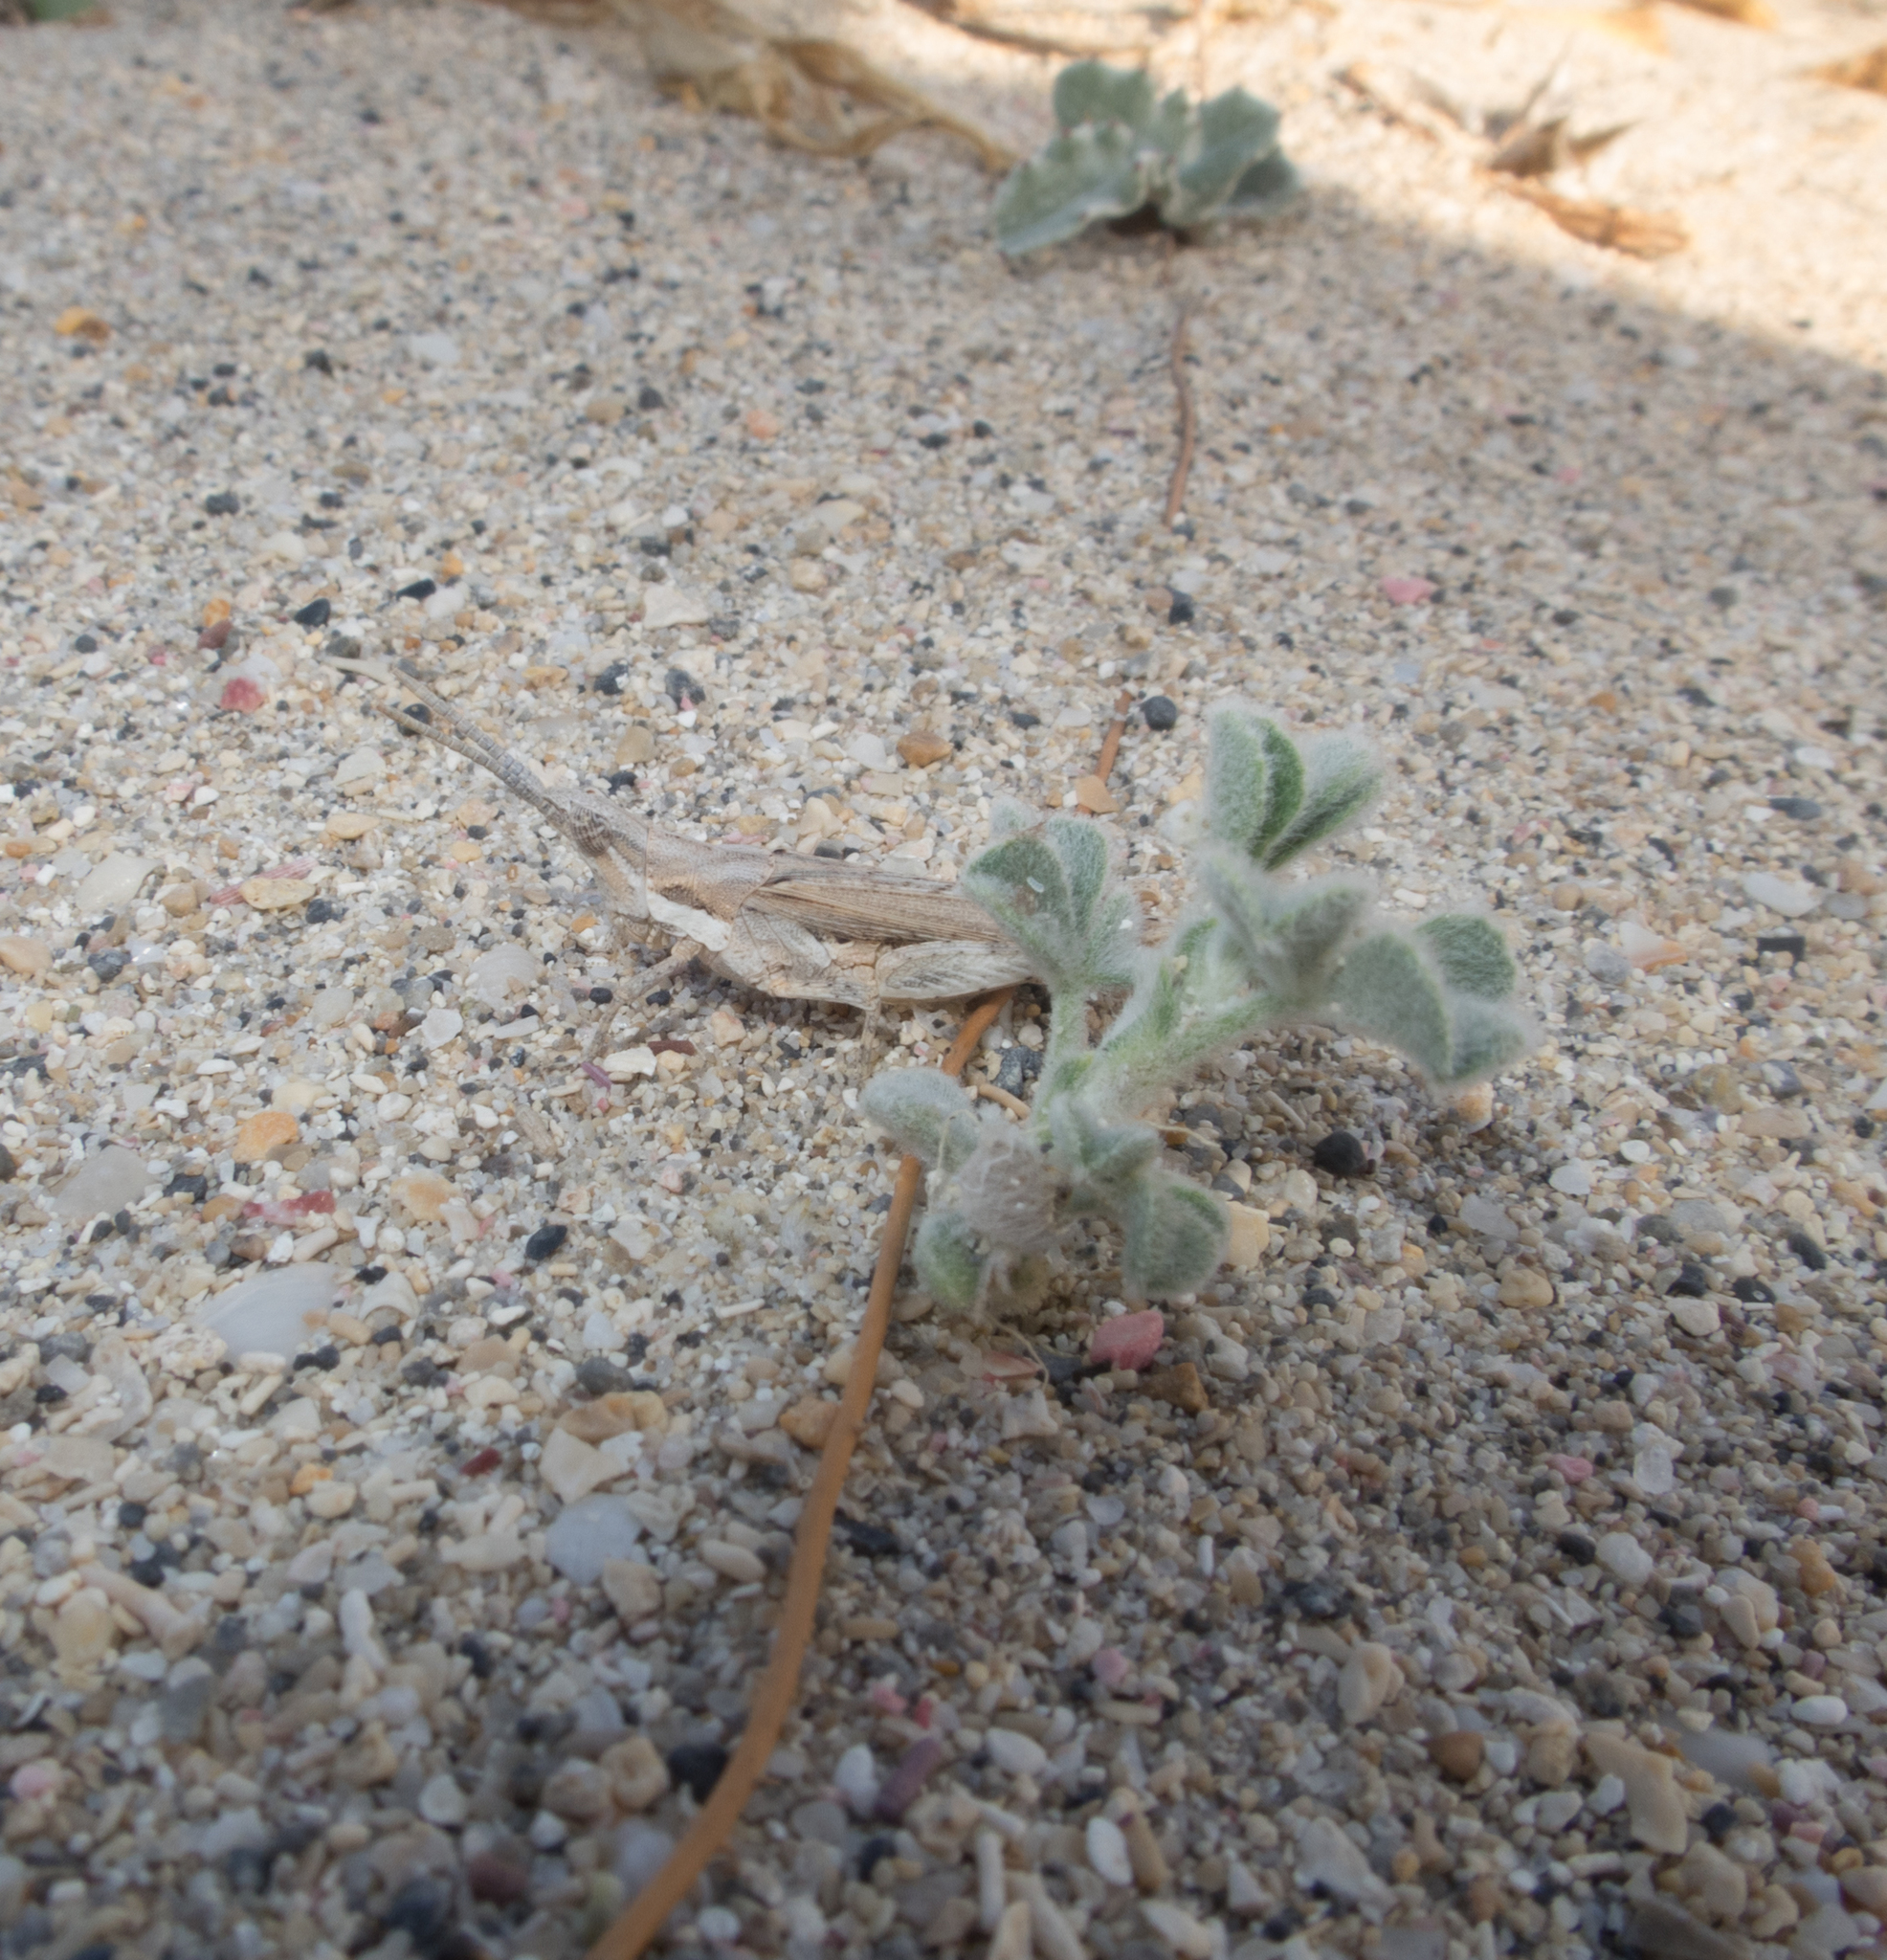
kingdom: Plantae
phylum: Tracheophyta
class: Magnoliopsida
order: Fabales
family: Fabaceae
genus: Medicago
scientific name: Medicago marina
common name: Sea medick
